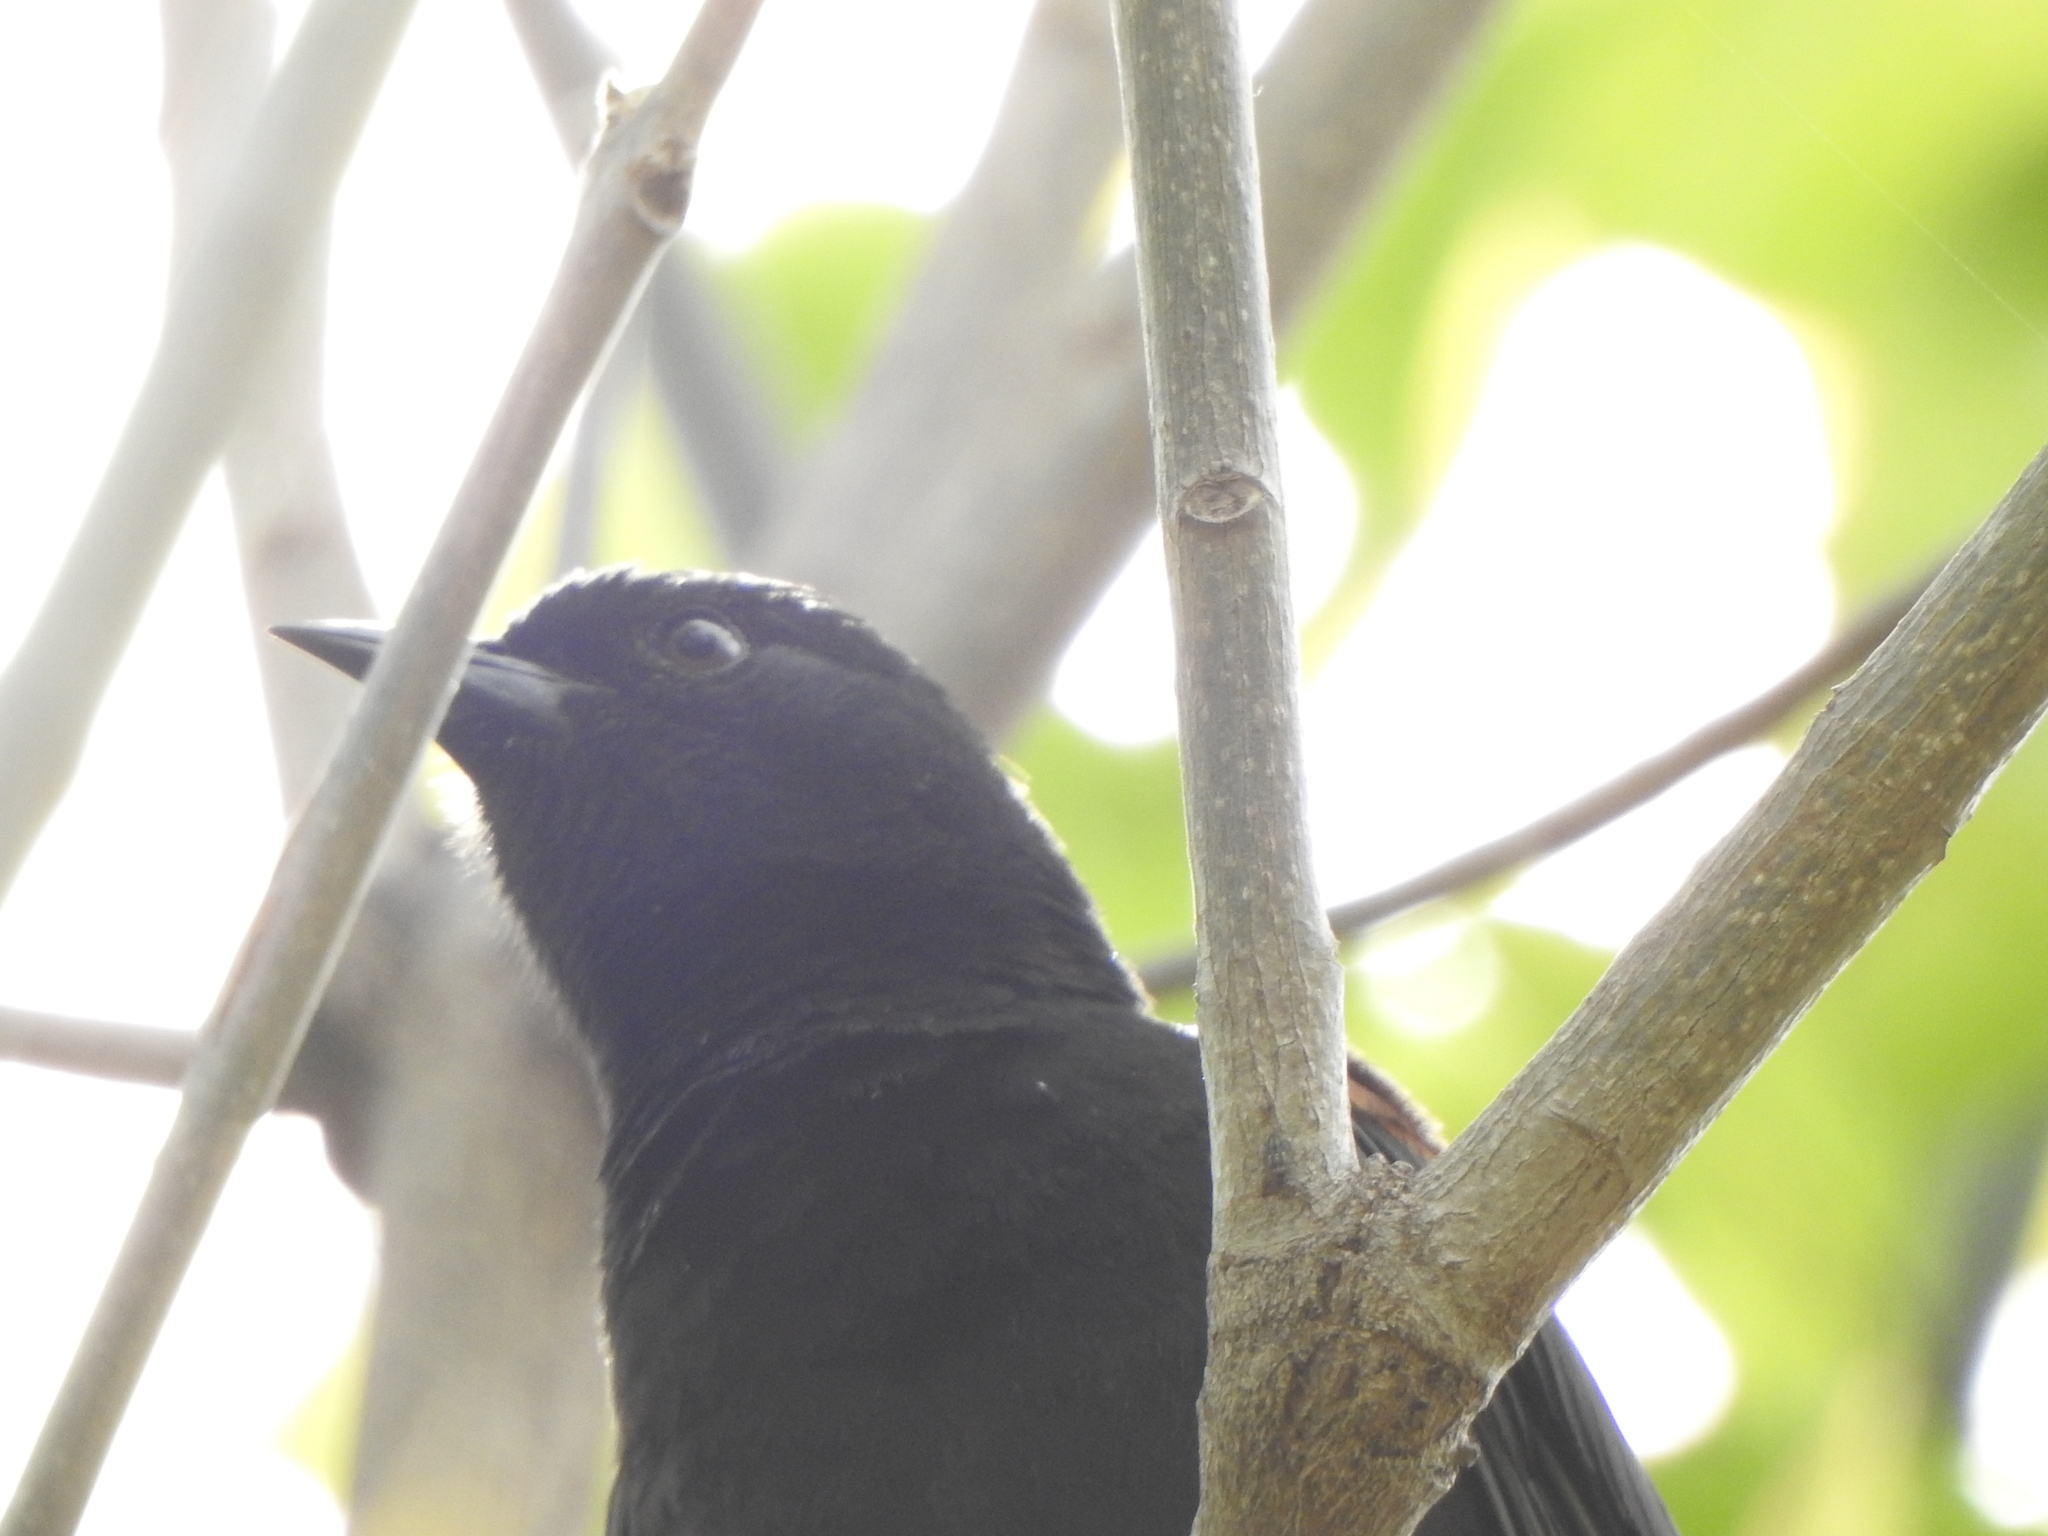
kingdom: Animalia
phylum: Chordata
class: Aves
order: Passeriformes
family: Icteridae
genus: Icterus
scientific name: Icterus cayanensis
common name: Epaulet oriole
